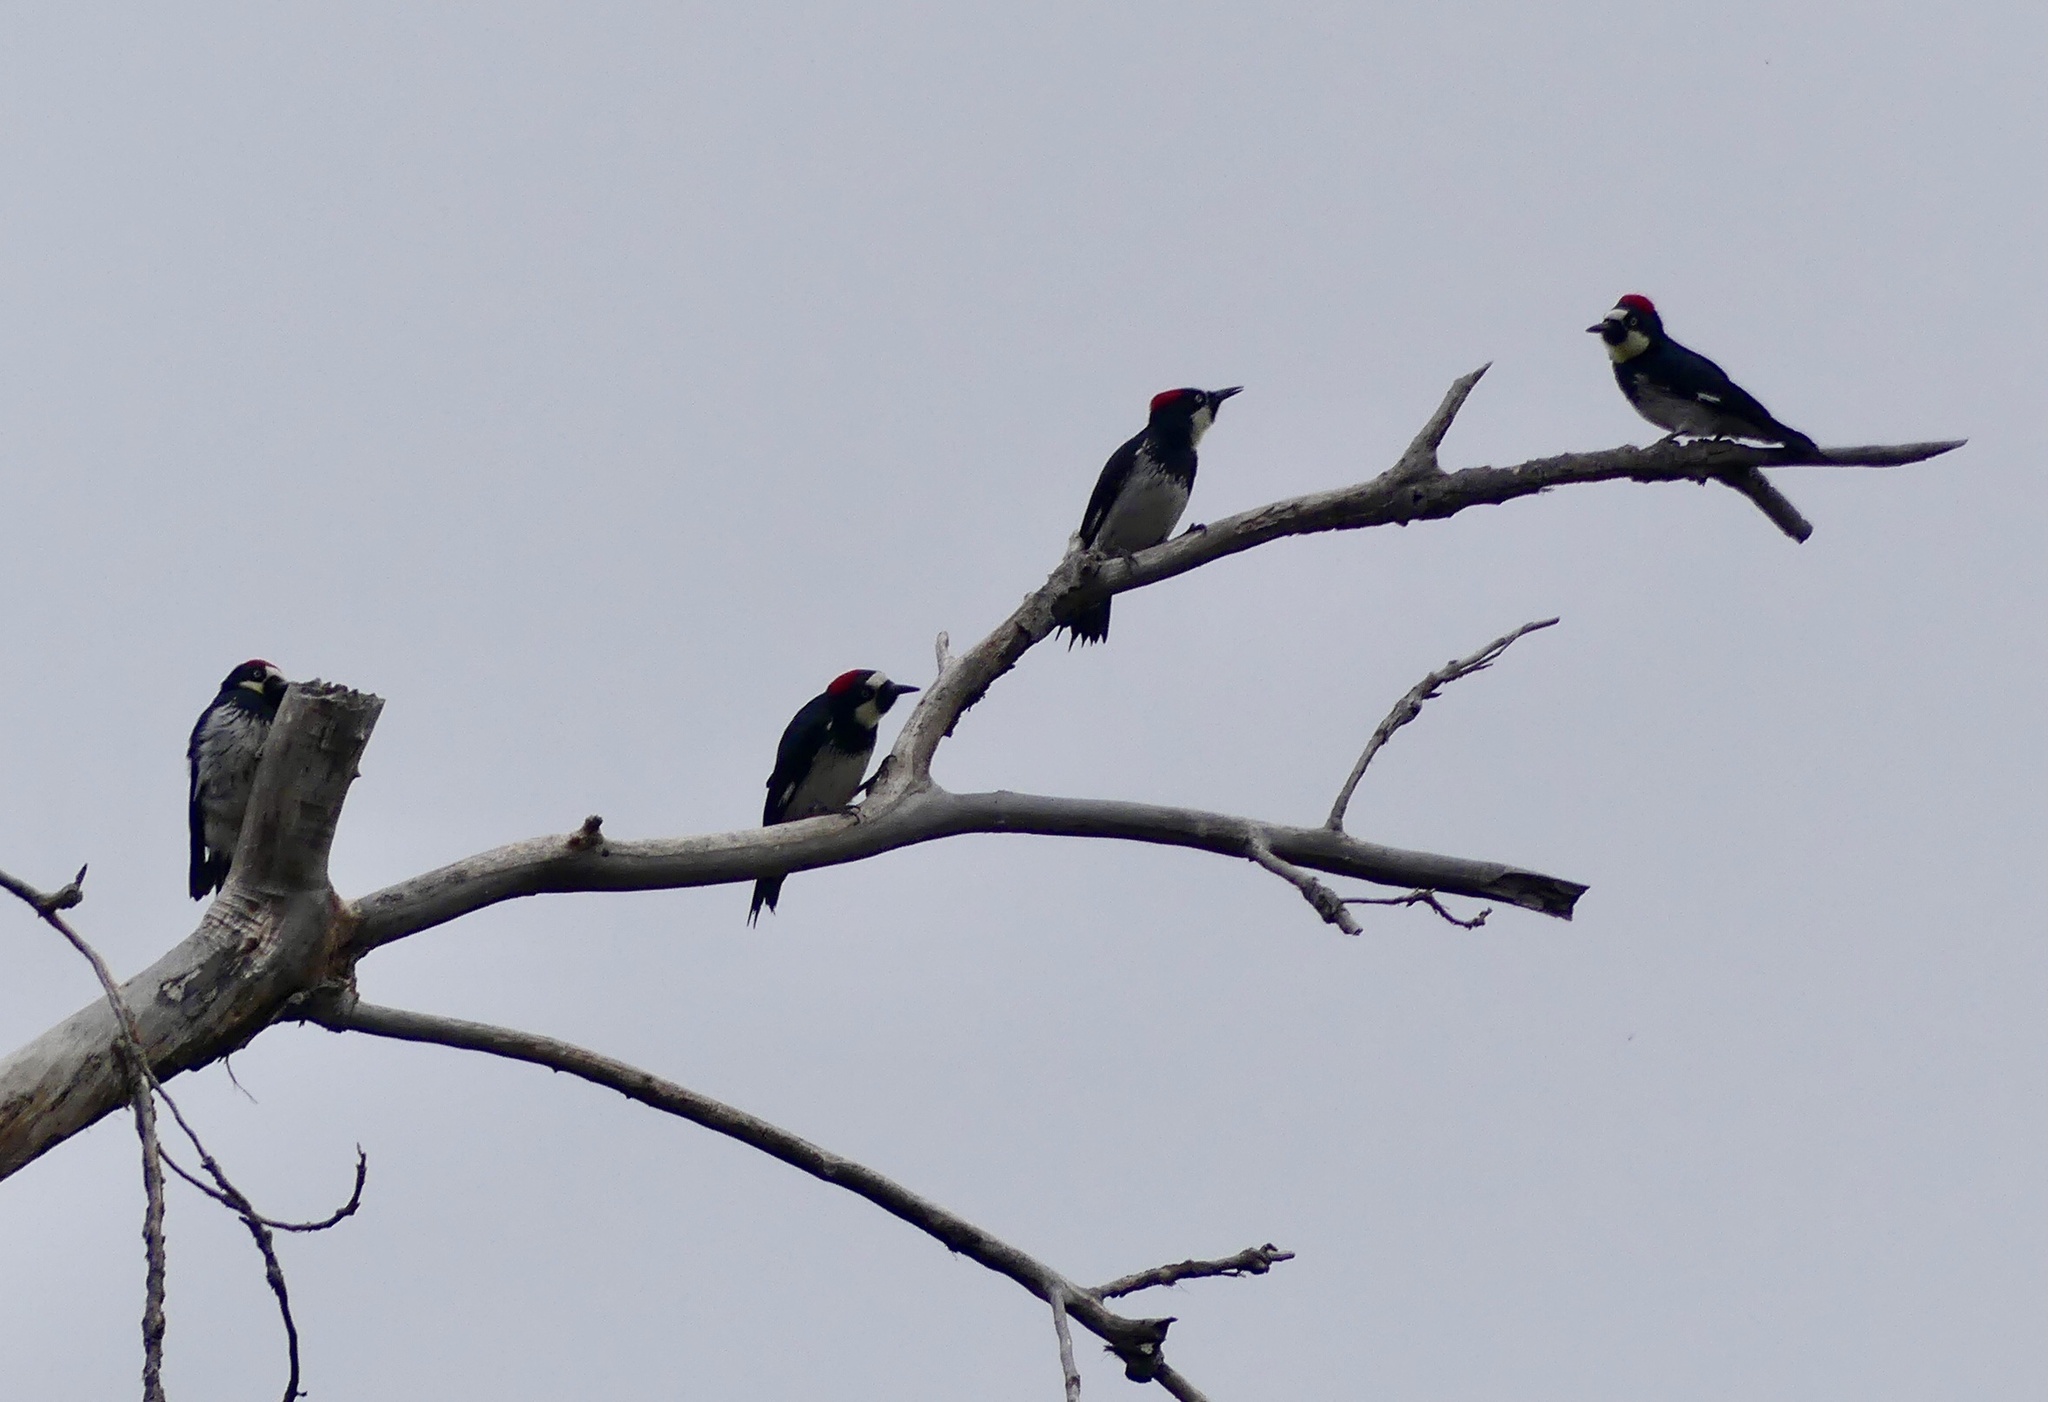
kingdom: Animalia
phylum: Chordata
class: Aves
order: Piciformes
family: Picidae
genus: Melanerpes
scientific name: Melanerpes formicivorus
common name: Acorn woodpecker
